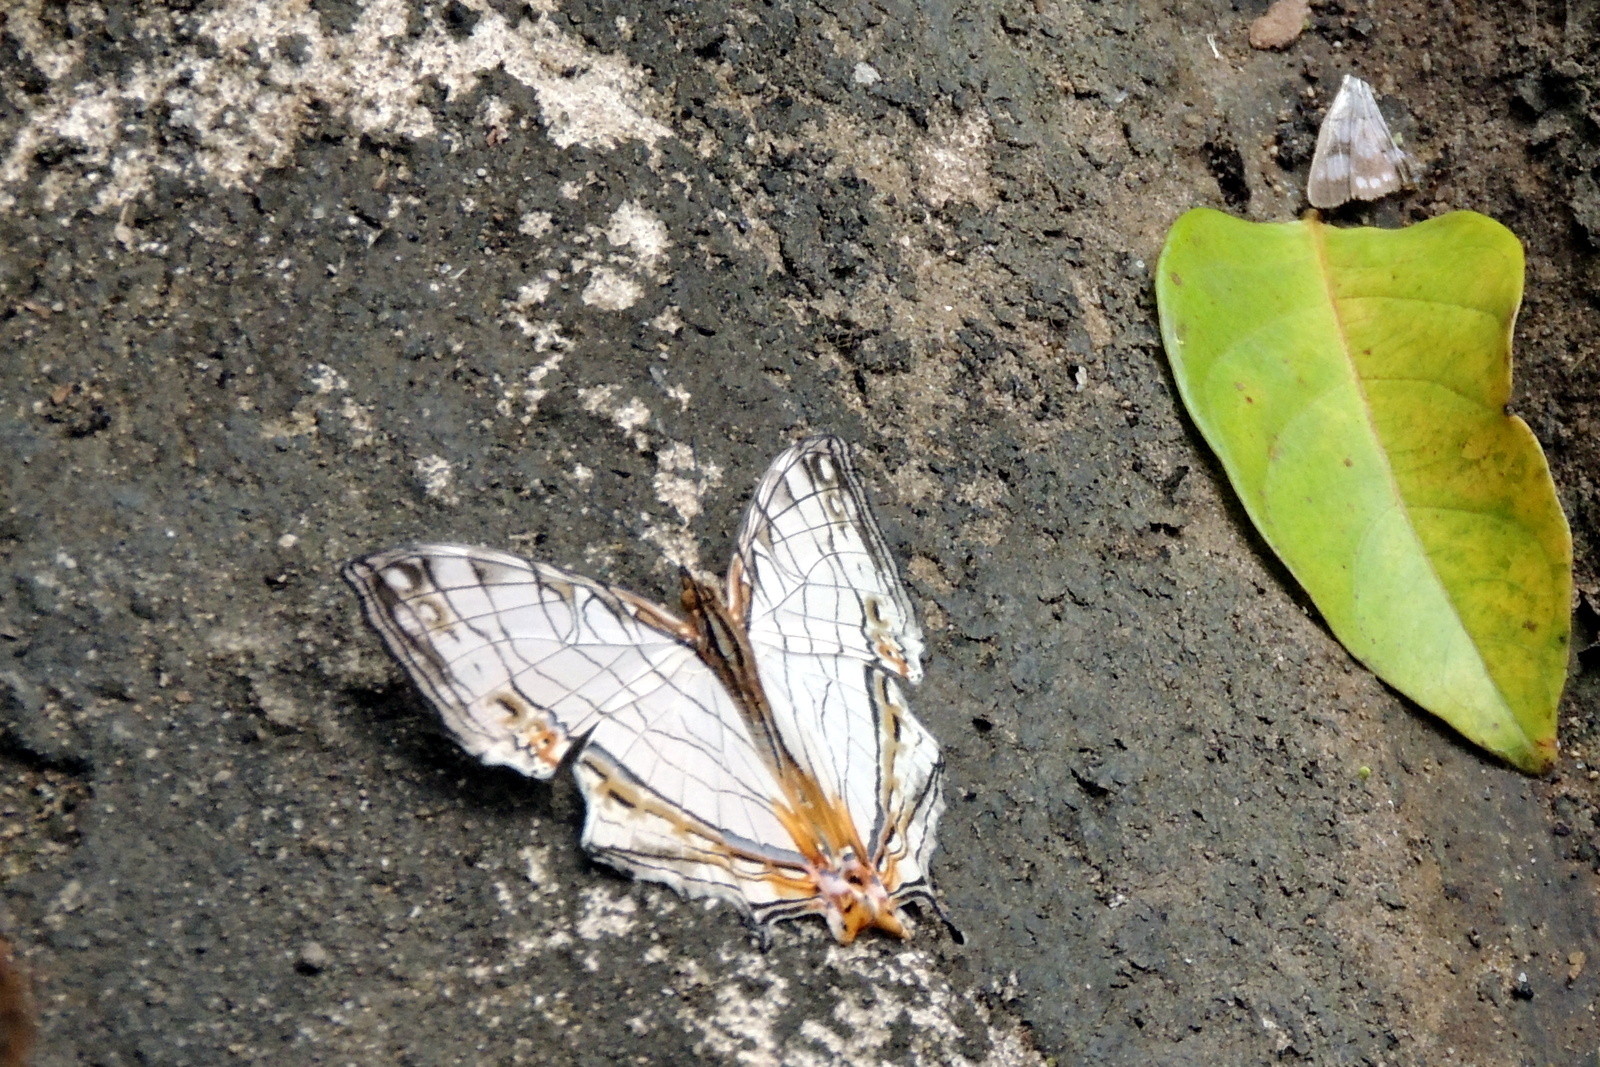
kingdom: Animalia
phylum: Arthropoda
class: Insecta
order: Lepidoptera
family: Nymphalidae
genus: Cyrestis
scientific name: Cyrestis thyodamas
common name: Common mapwing
